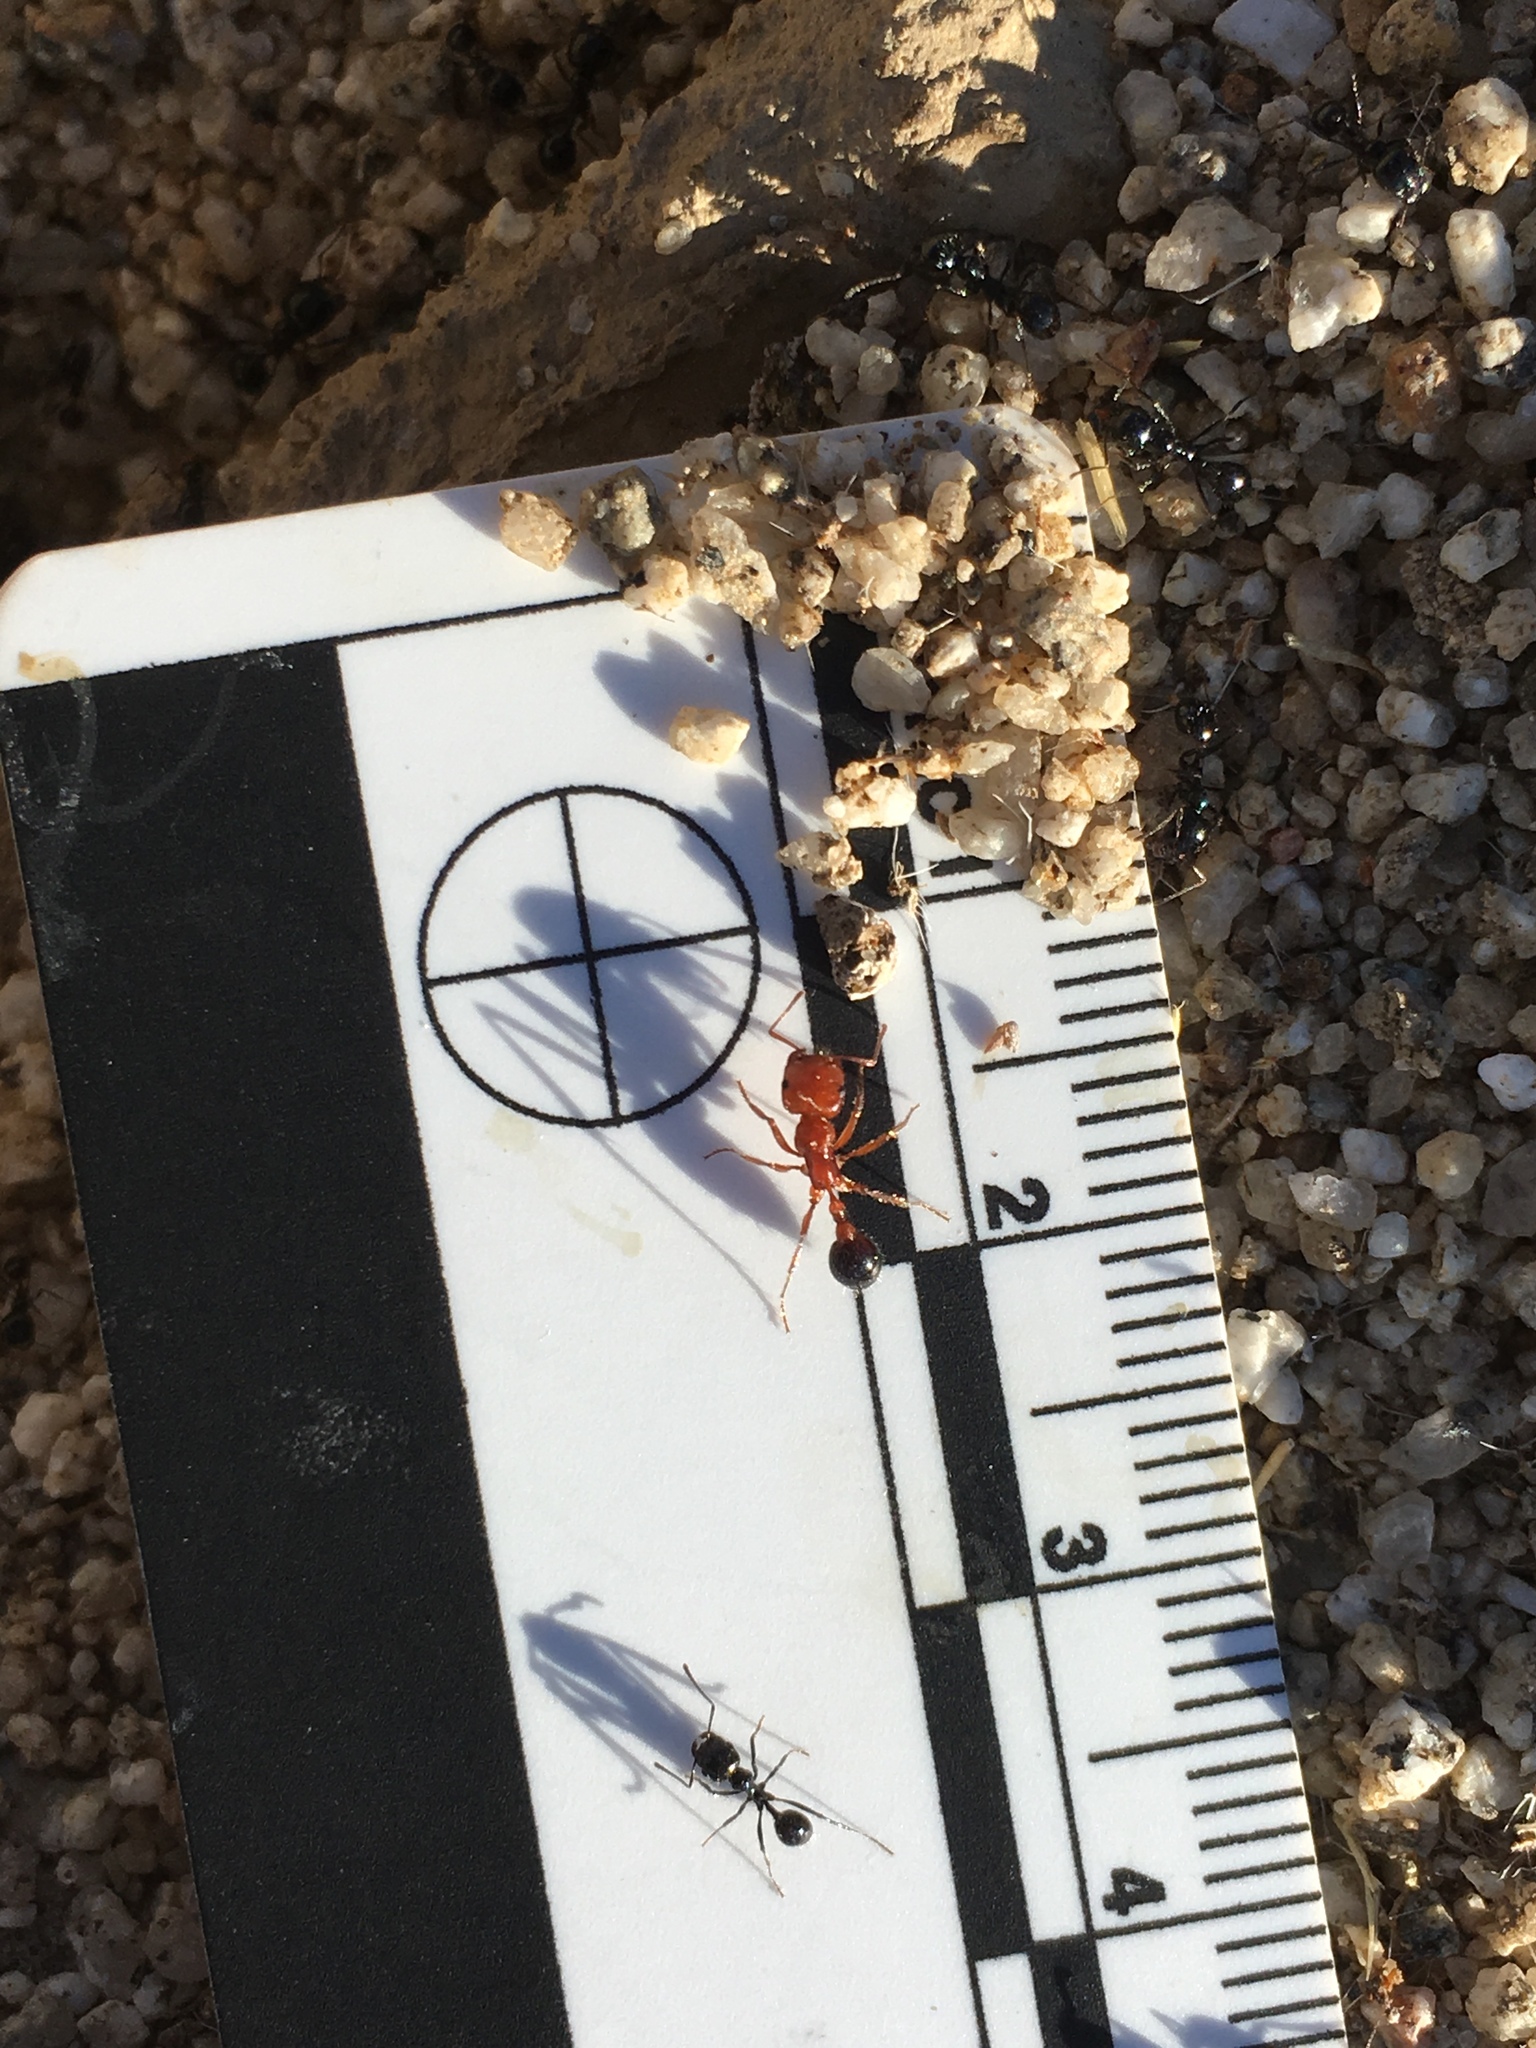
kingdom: Animalia
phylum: Arthropoda
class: Insecta
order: Hymenoptera
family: Formicidae
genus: Messor
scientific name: Messor pergandei
